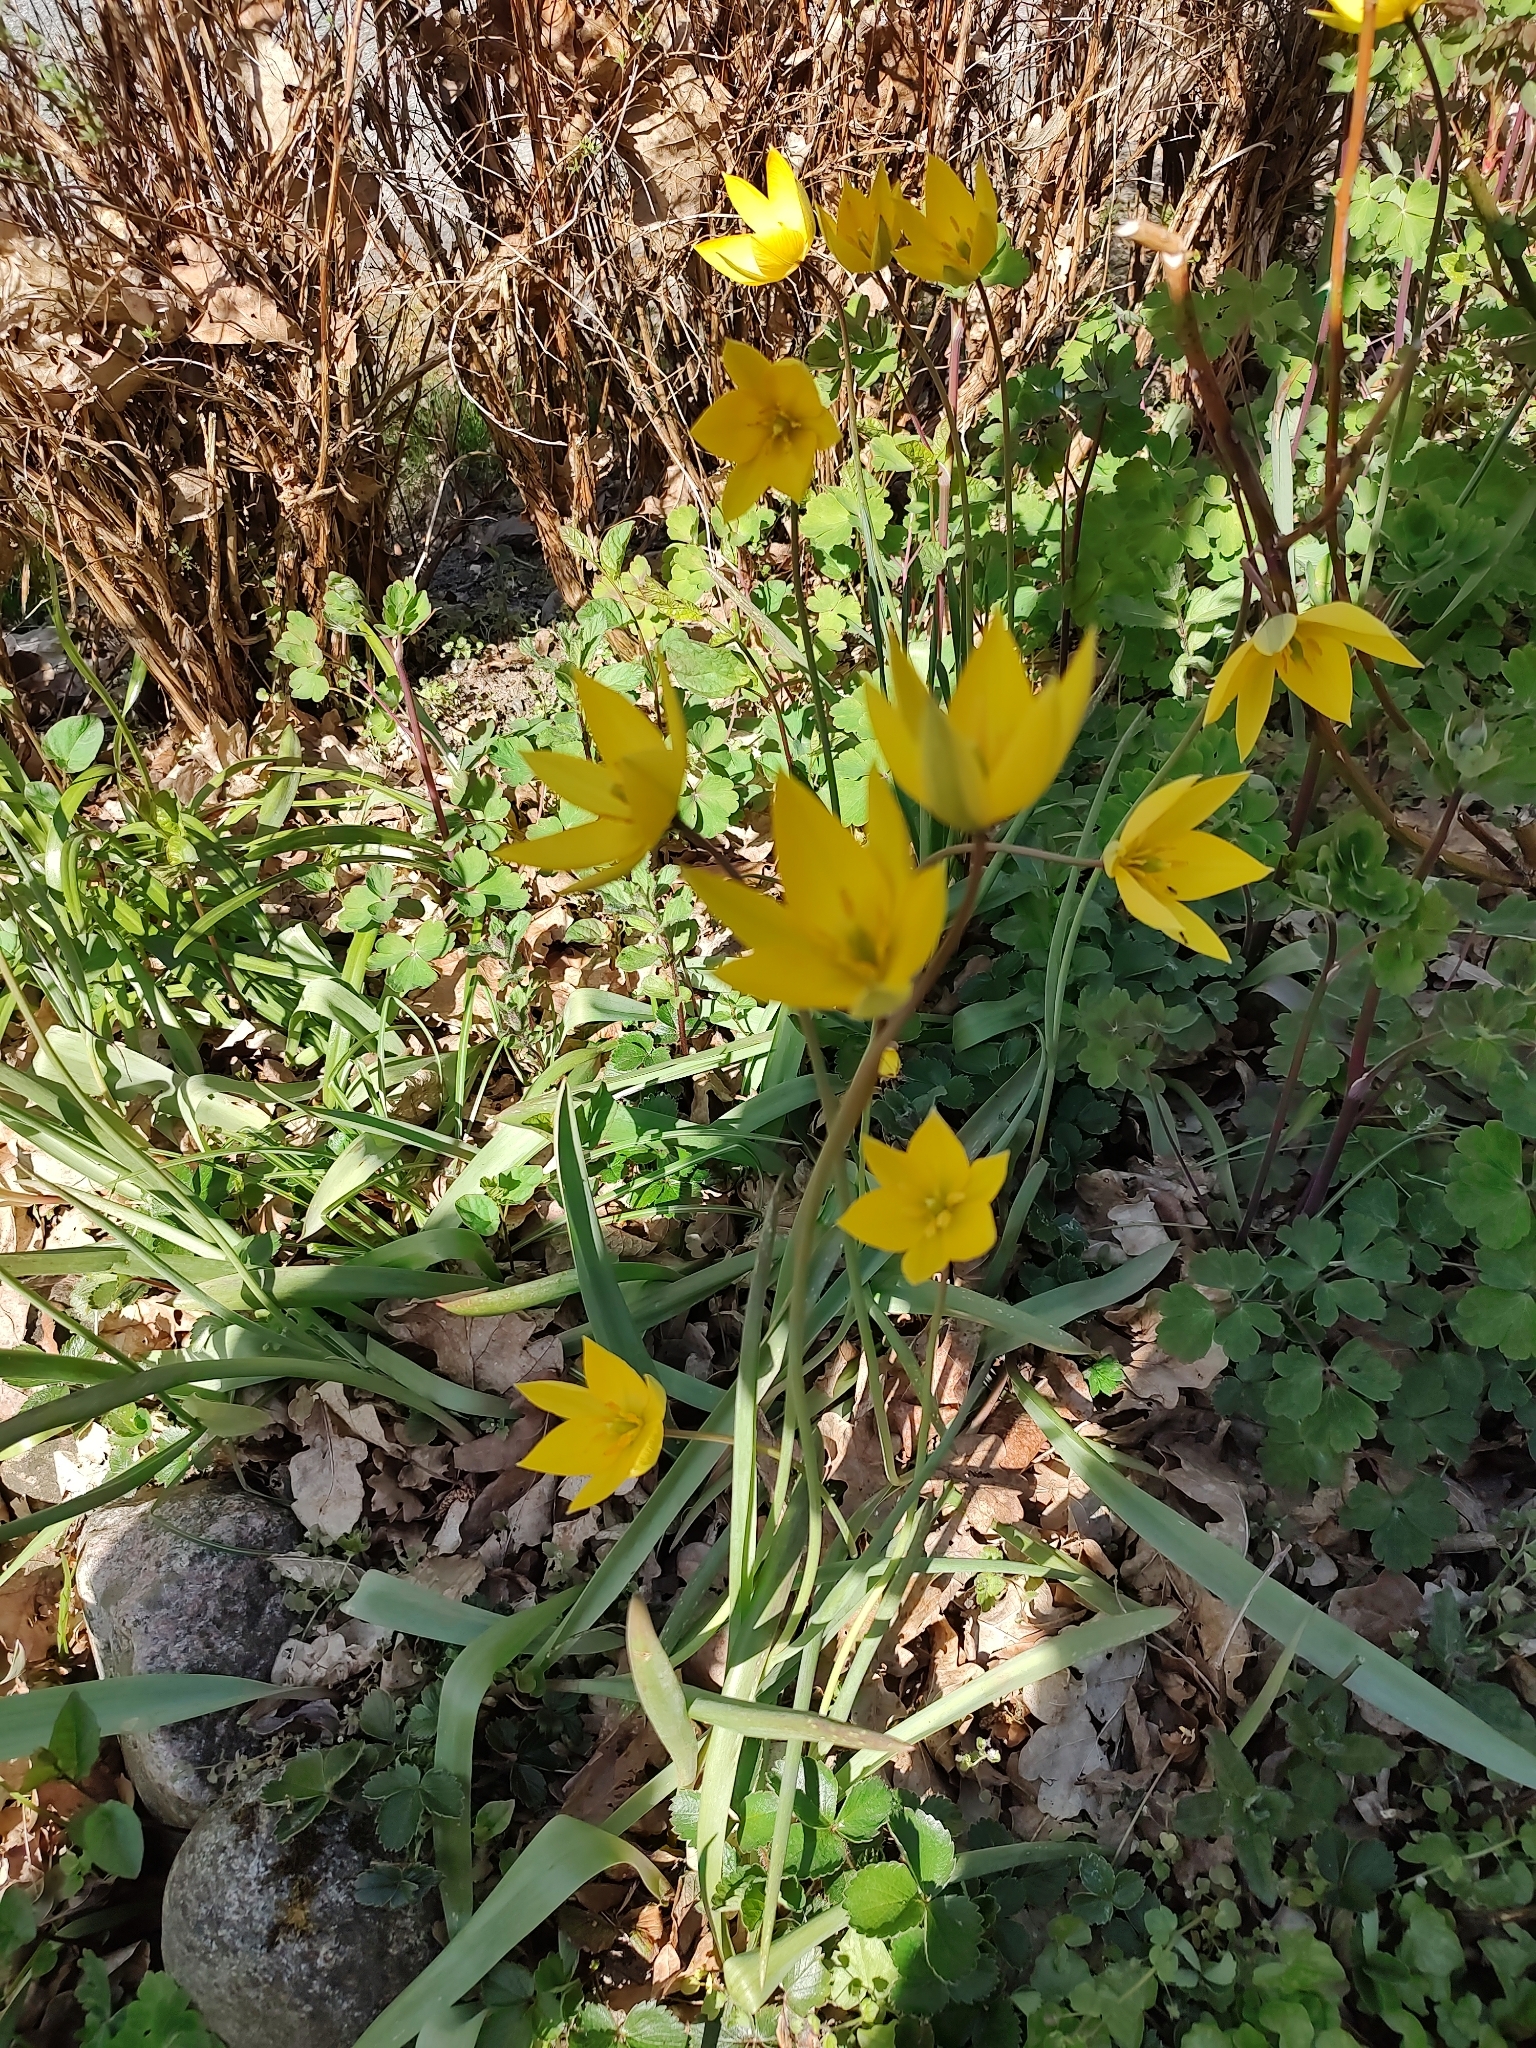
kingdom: Plantae
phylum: Tracheophyta
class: Liliopsida
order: Liliales
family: Liliaceae
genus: Tulipa
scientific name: Tulipa sylvestris
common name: Wild tulip
